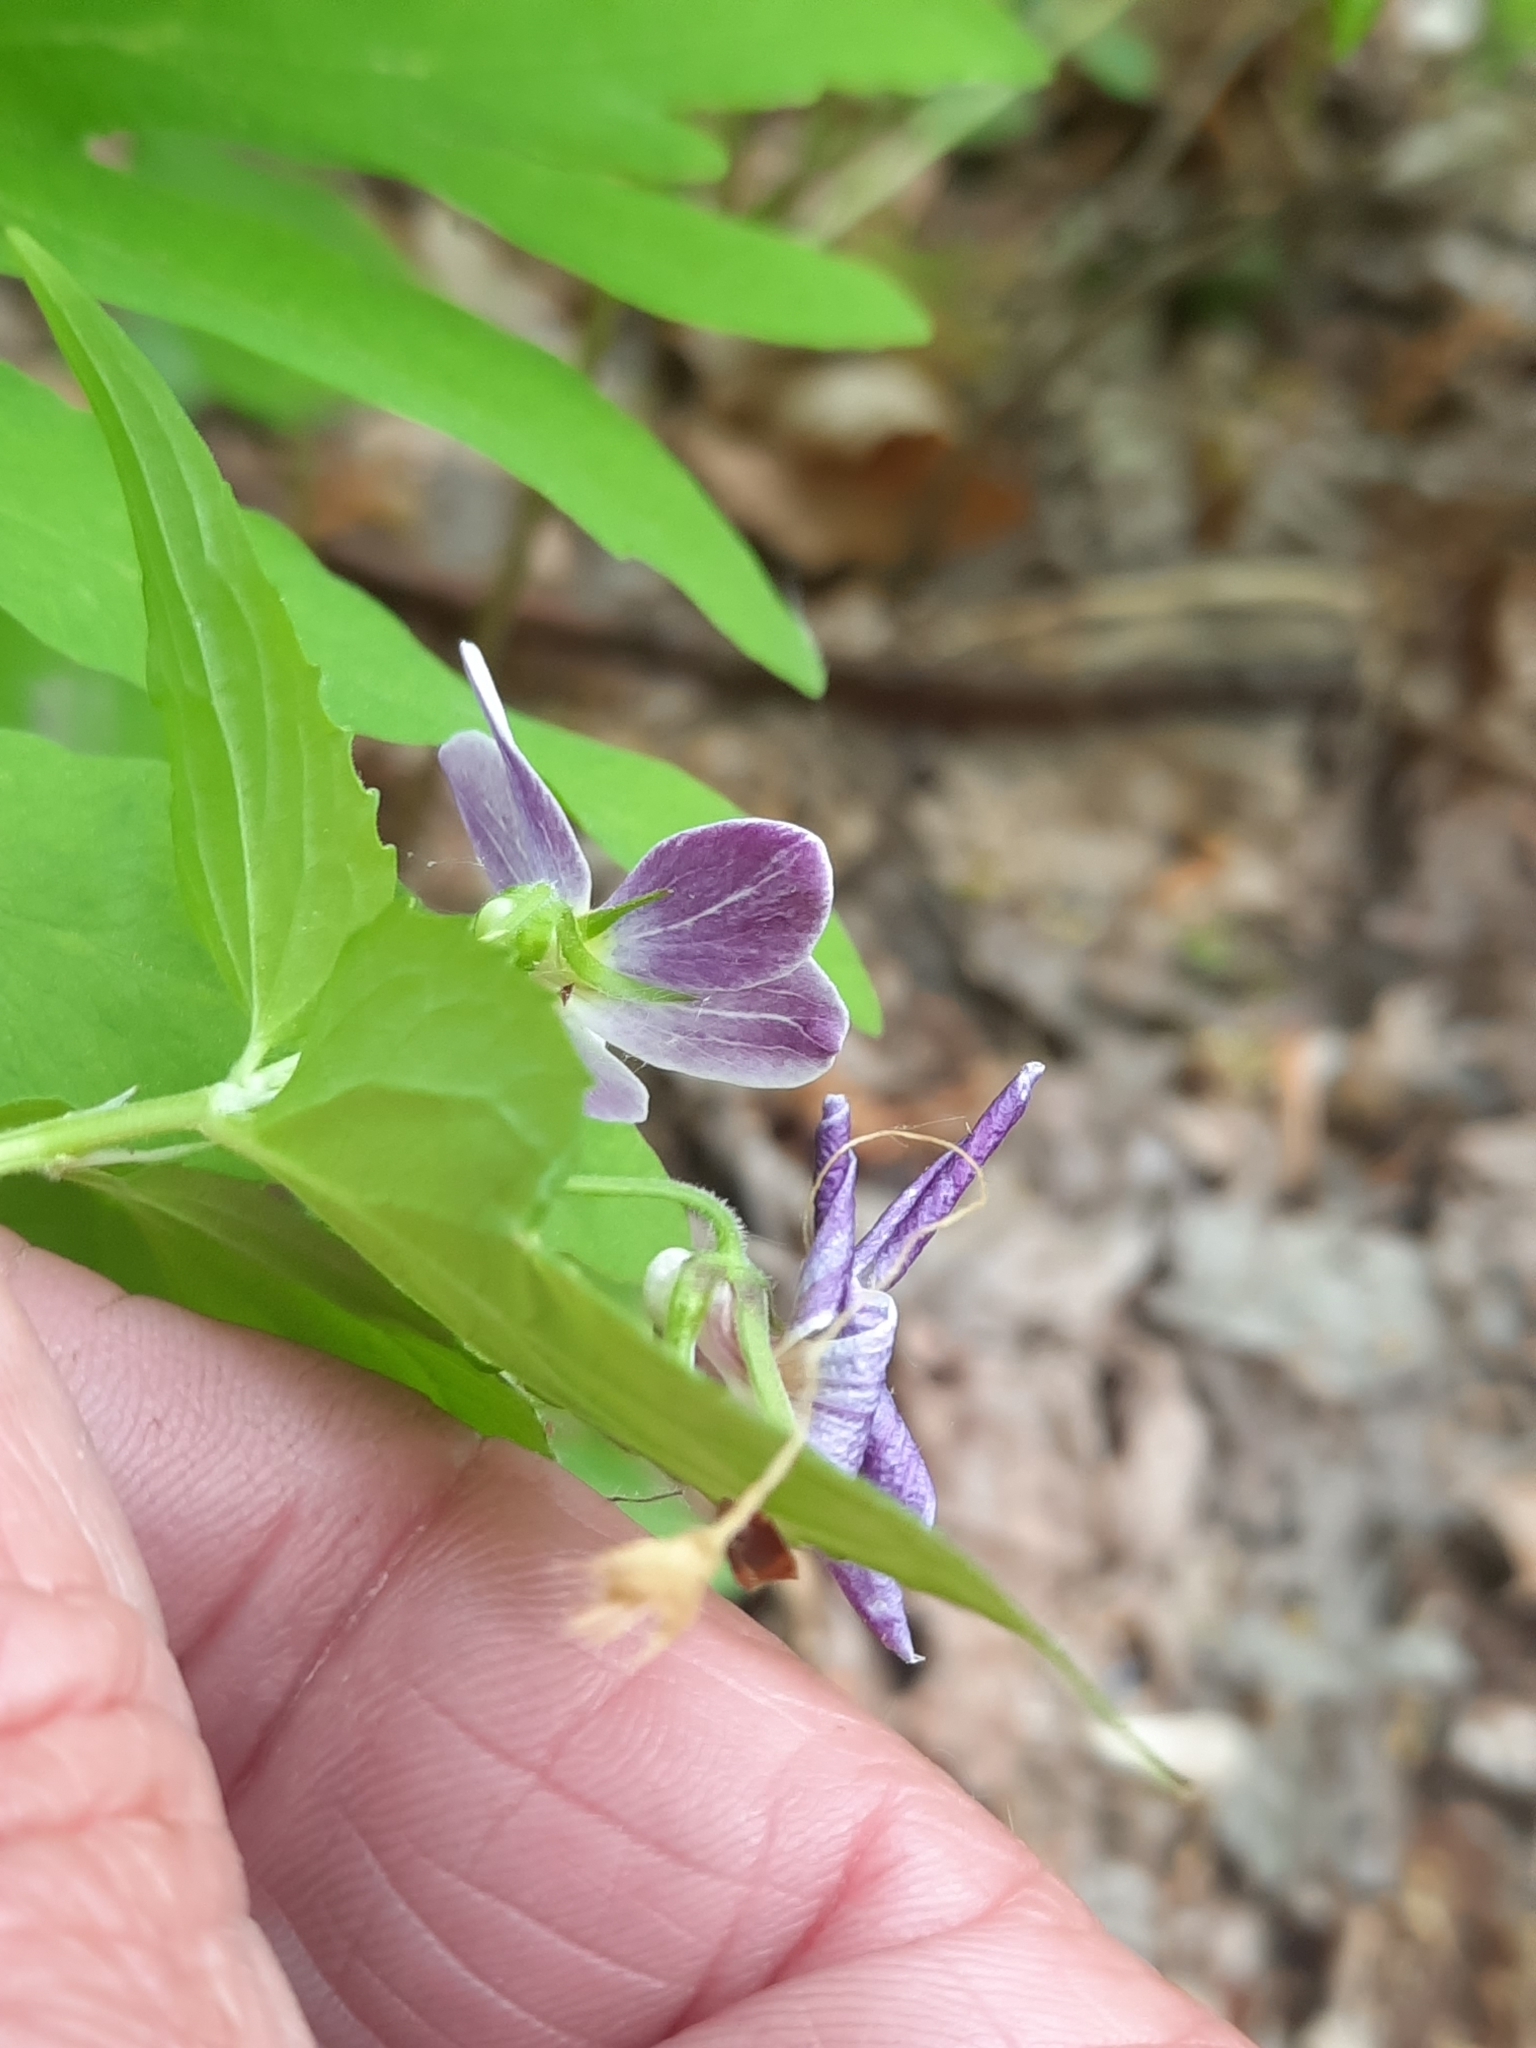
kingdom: Plantae
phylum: Tracheophyta
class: Magnoliopsida
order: Malpighiales
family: Violaceae
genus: Viola
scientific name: Viola canadensis
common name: Canada violet
